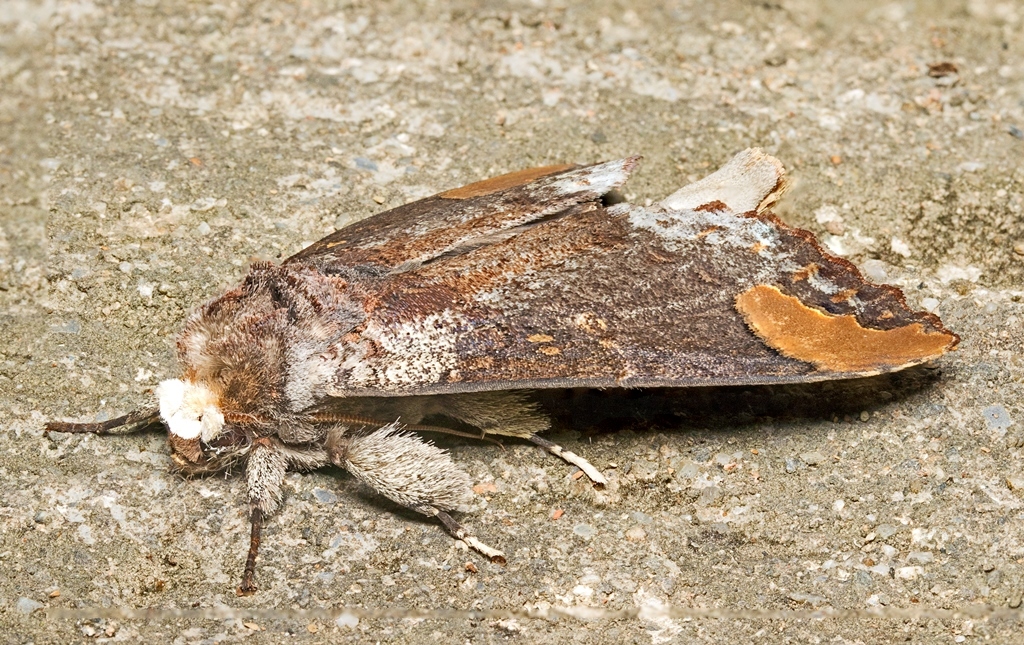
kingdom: Animalia
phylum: Arthropoda
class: Insecta
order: Lepidoptera
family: Notodontidae
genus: Phalera
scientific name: Phalera sundana
